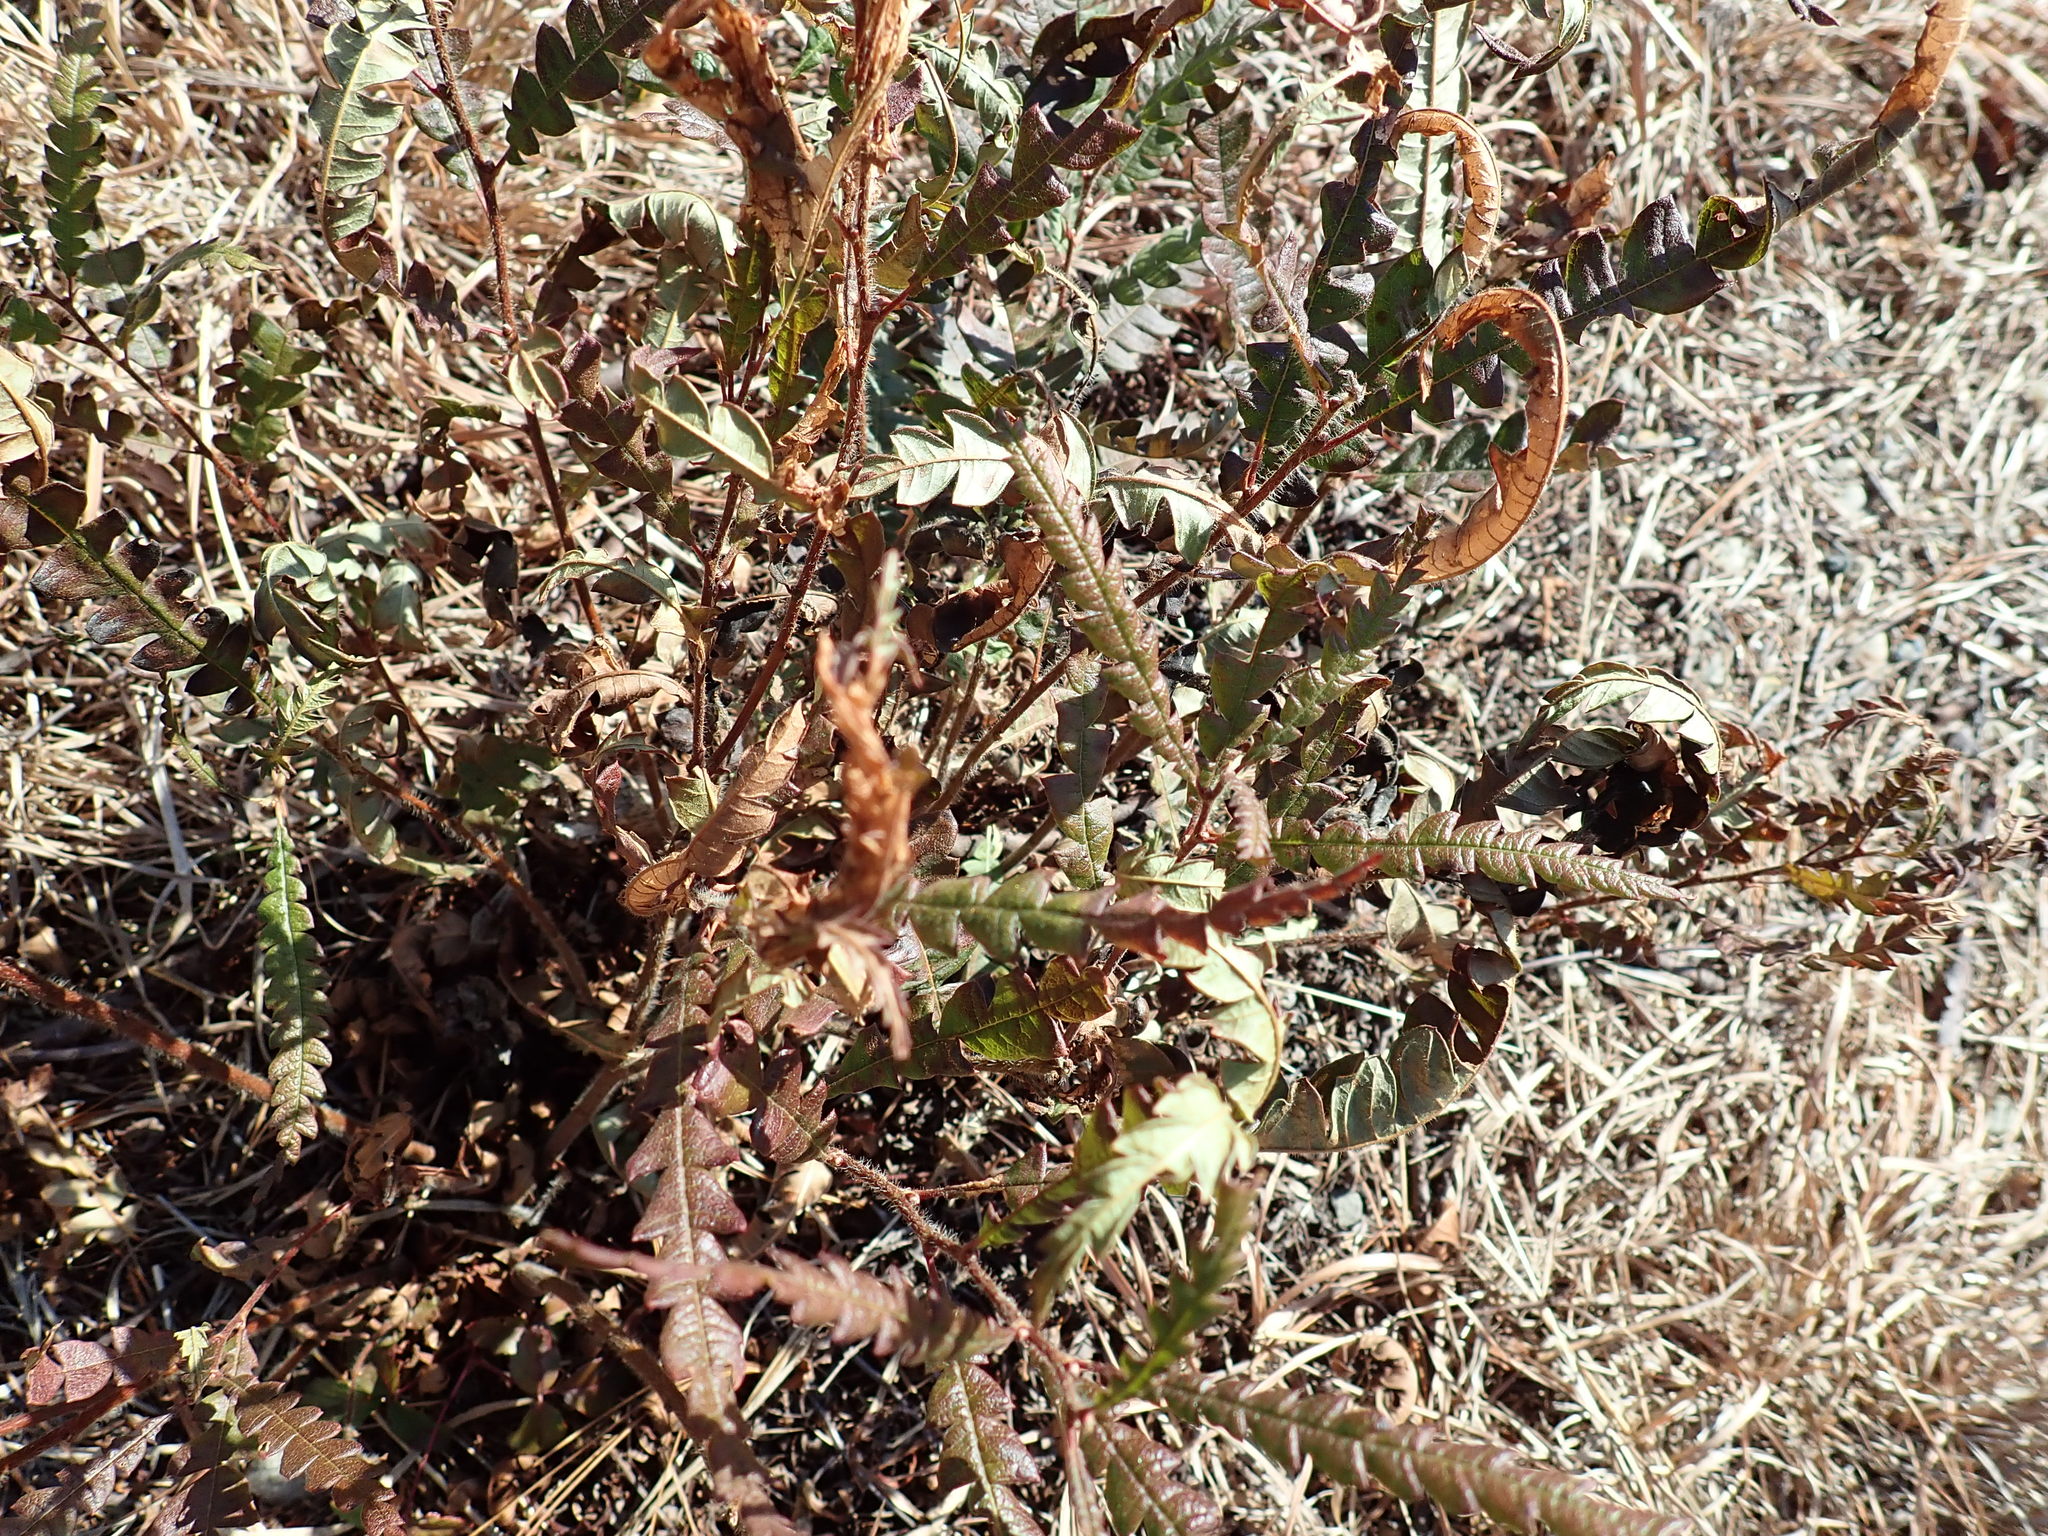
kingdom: Plantae
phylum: Tracheophyta
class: Magnoliopsida
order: Fagales
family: Myricaceae
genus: Comptonia
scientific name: Comptonia peregrina
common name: Sweet-fern
